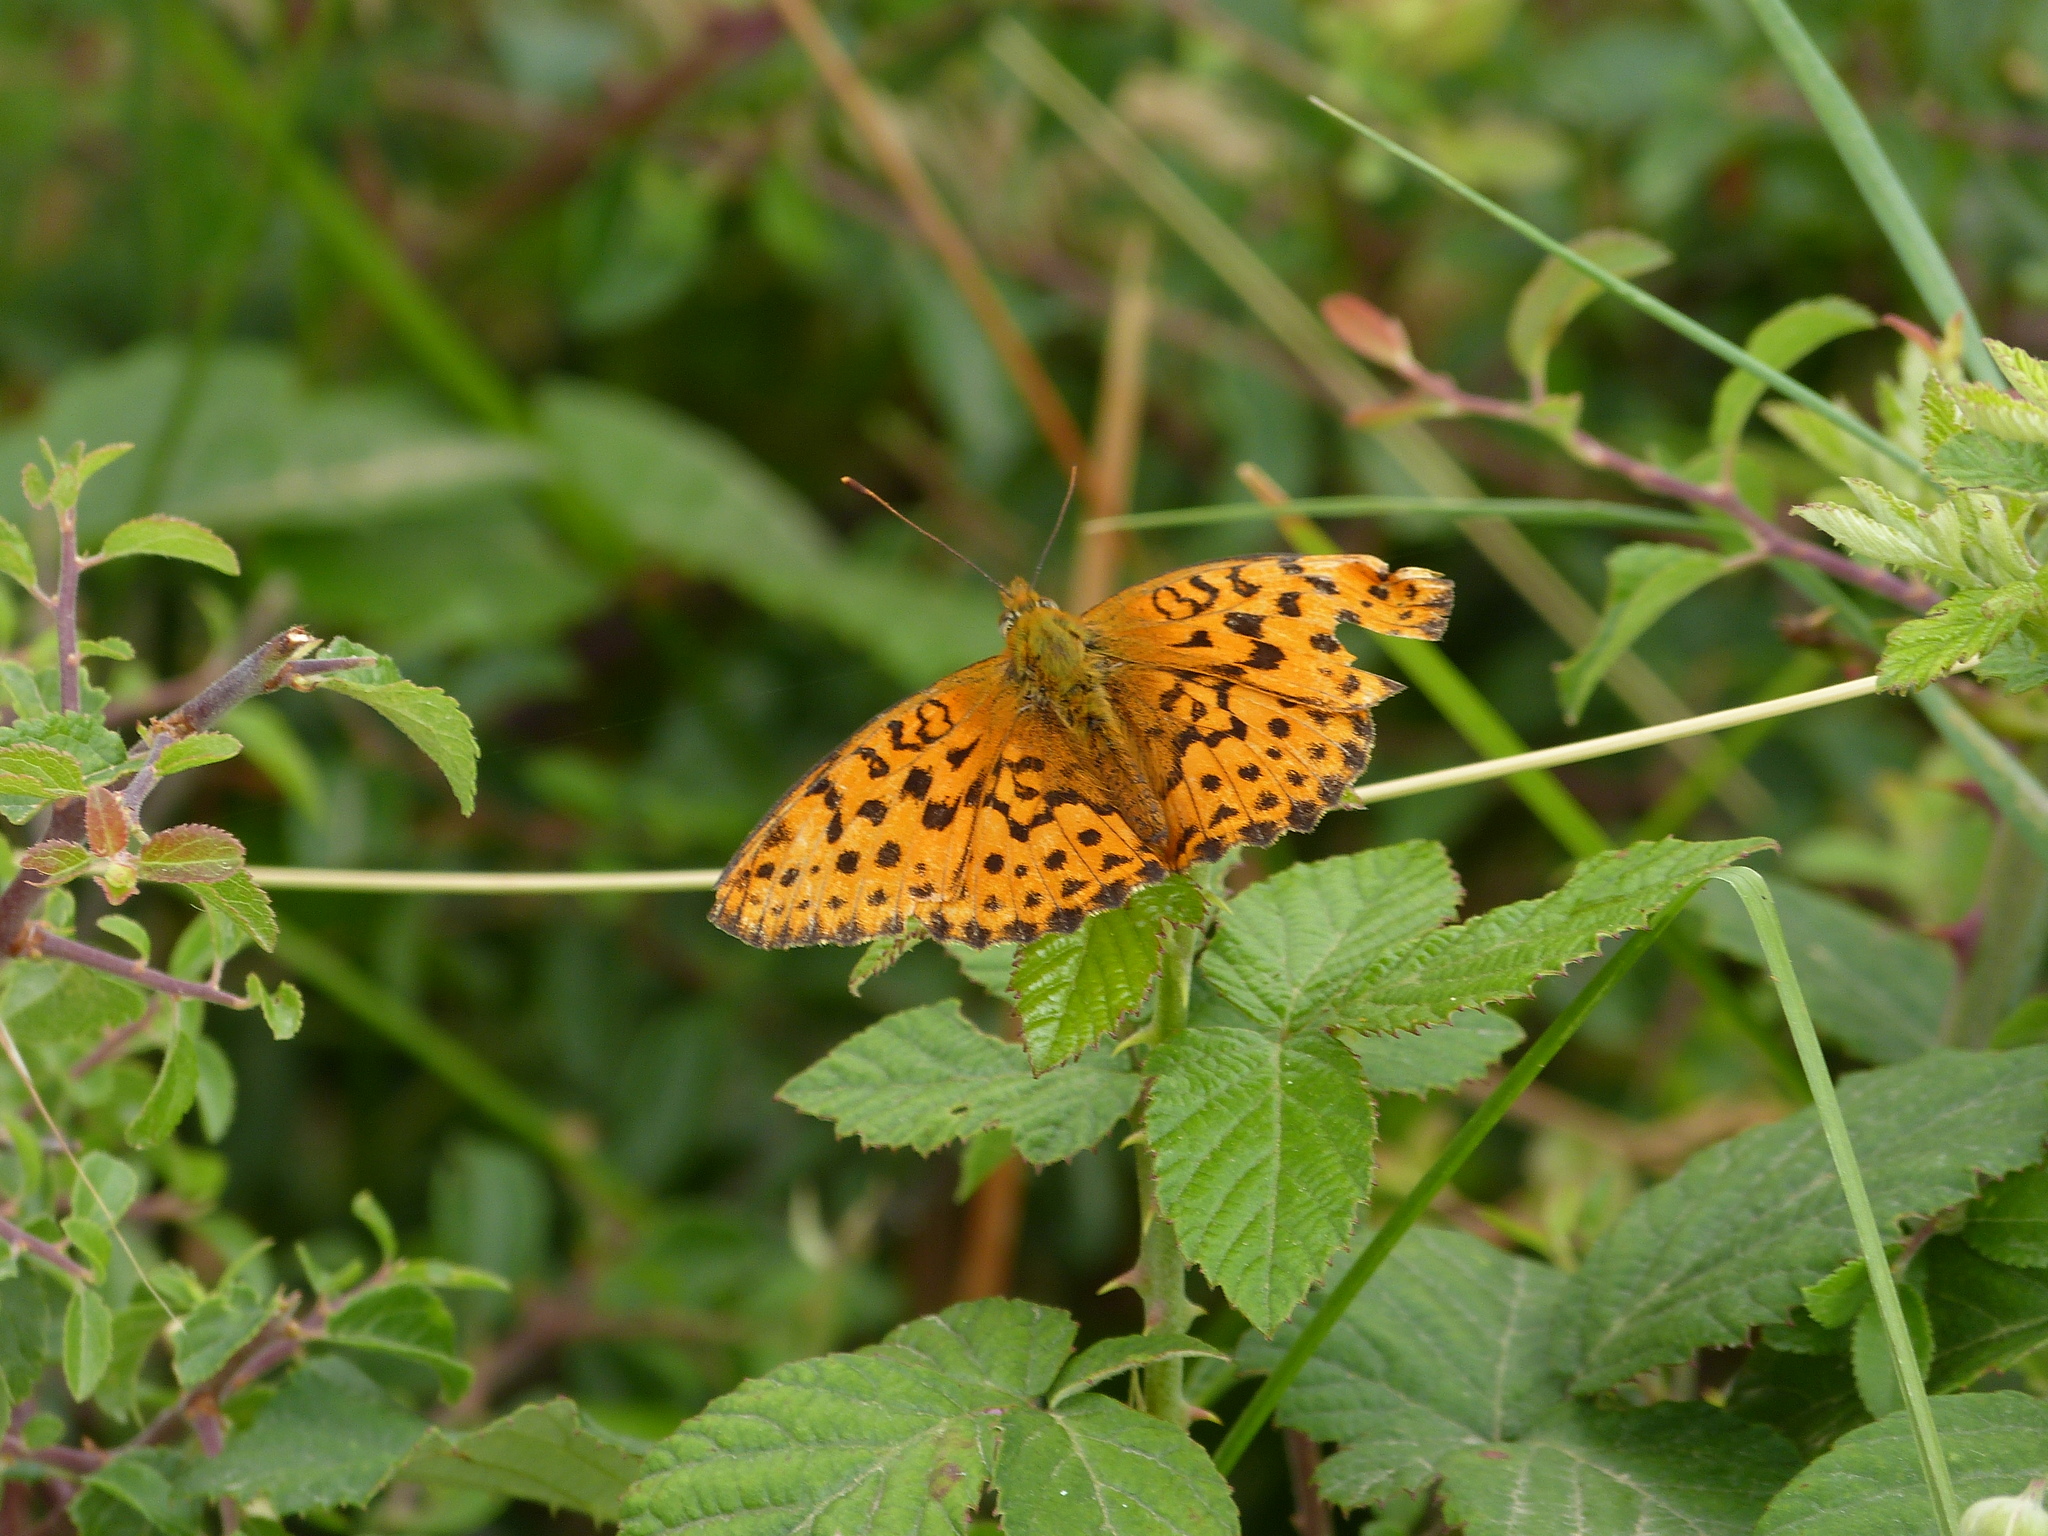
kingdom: Animalia
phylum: Arthropoda
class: Insecta
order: Lepidoptera
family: Nymphalidae
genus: Brenthis
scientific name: Brenthis daphne
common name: Marbled fritillary
